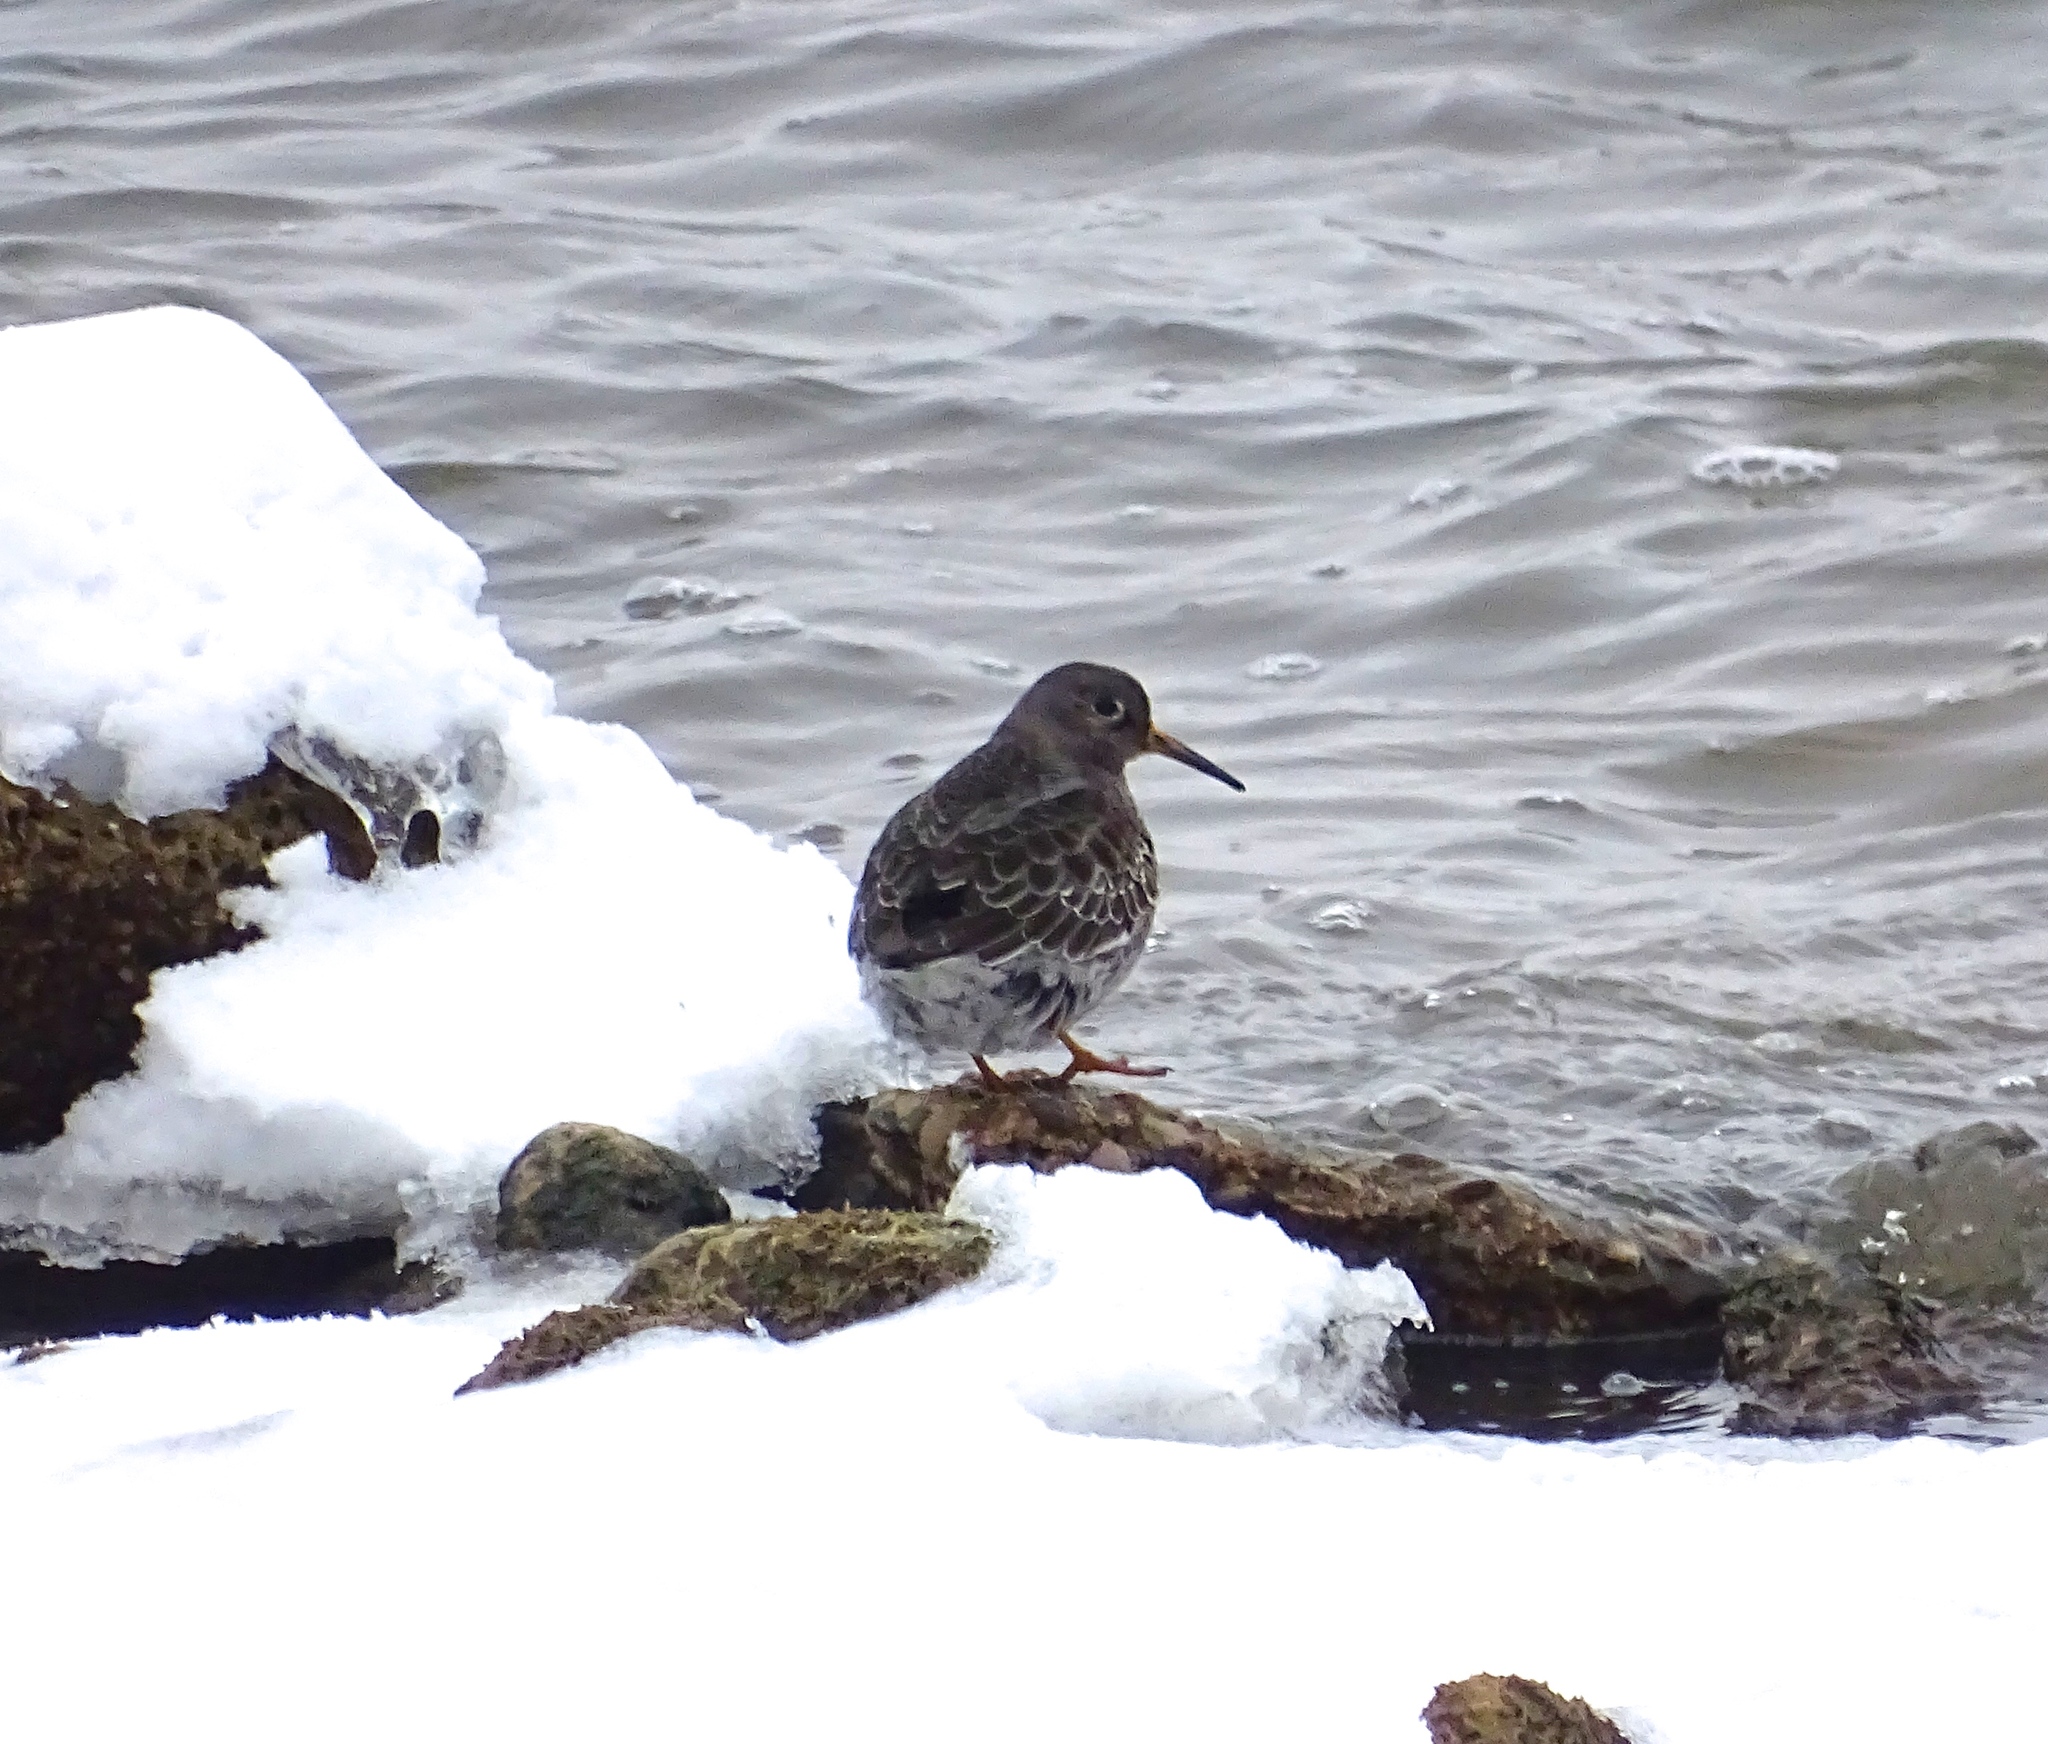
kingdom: Animalia
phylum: Chordata
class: Aves
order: Charadriiformes
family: Scolopacidae
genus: Calidris
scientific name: Calidris maritima
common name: Purple sandpiper
